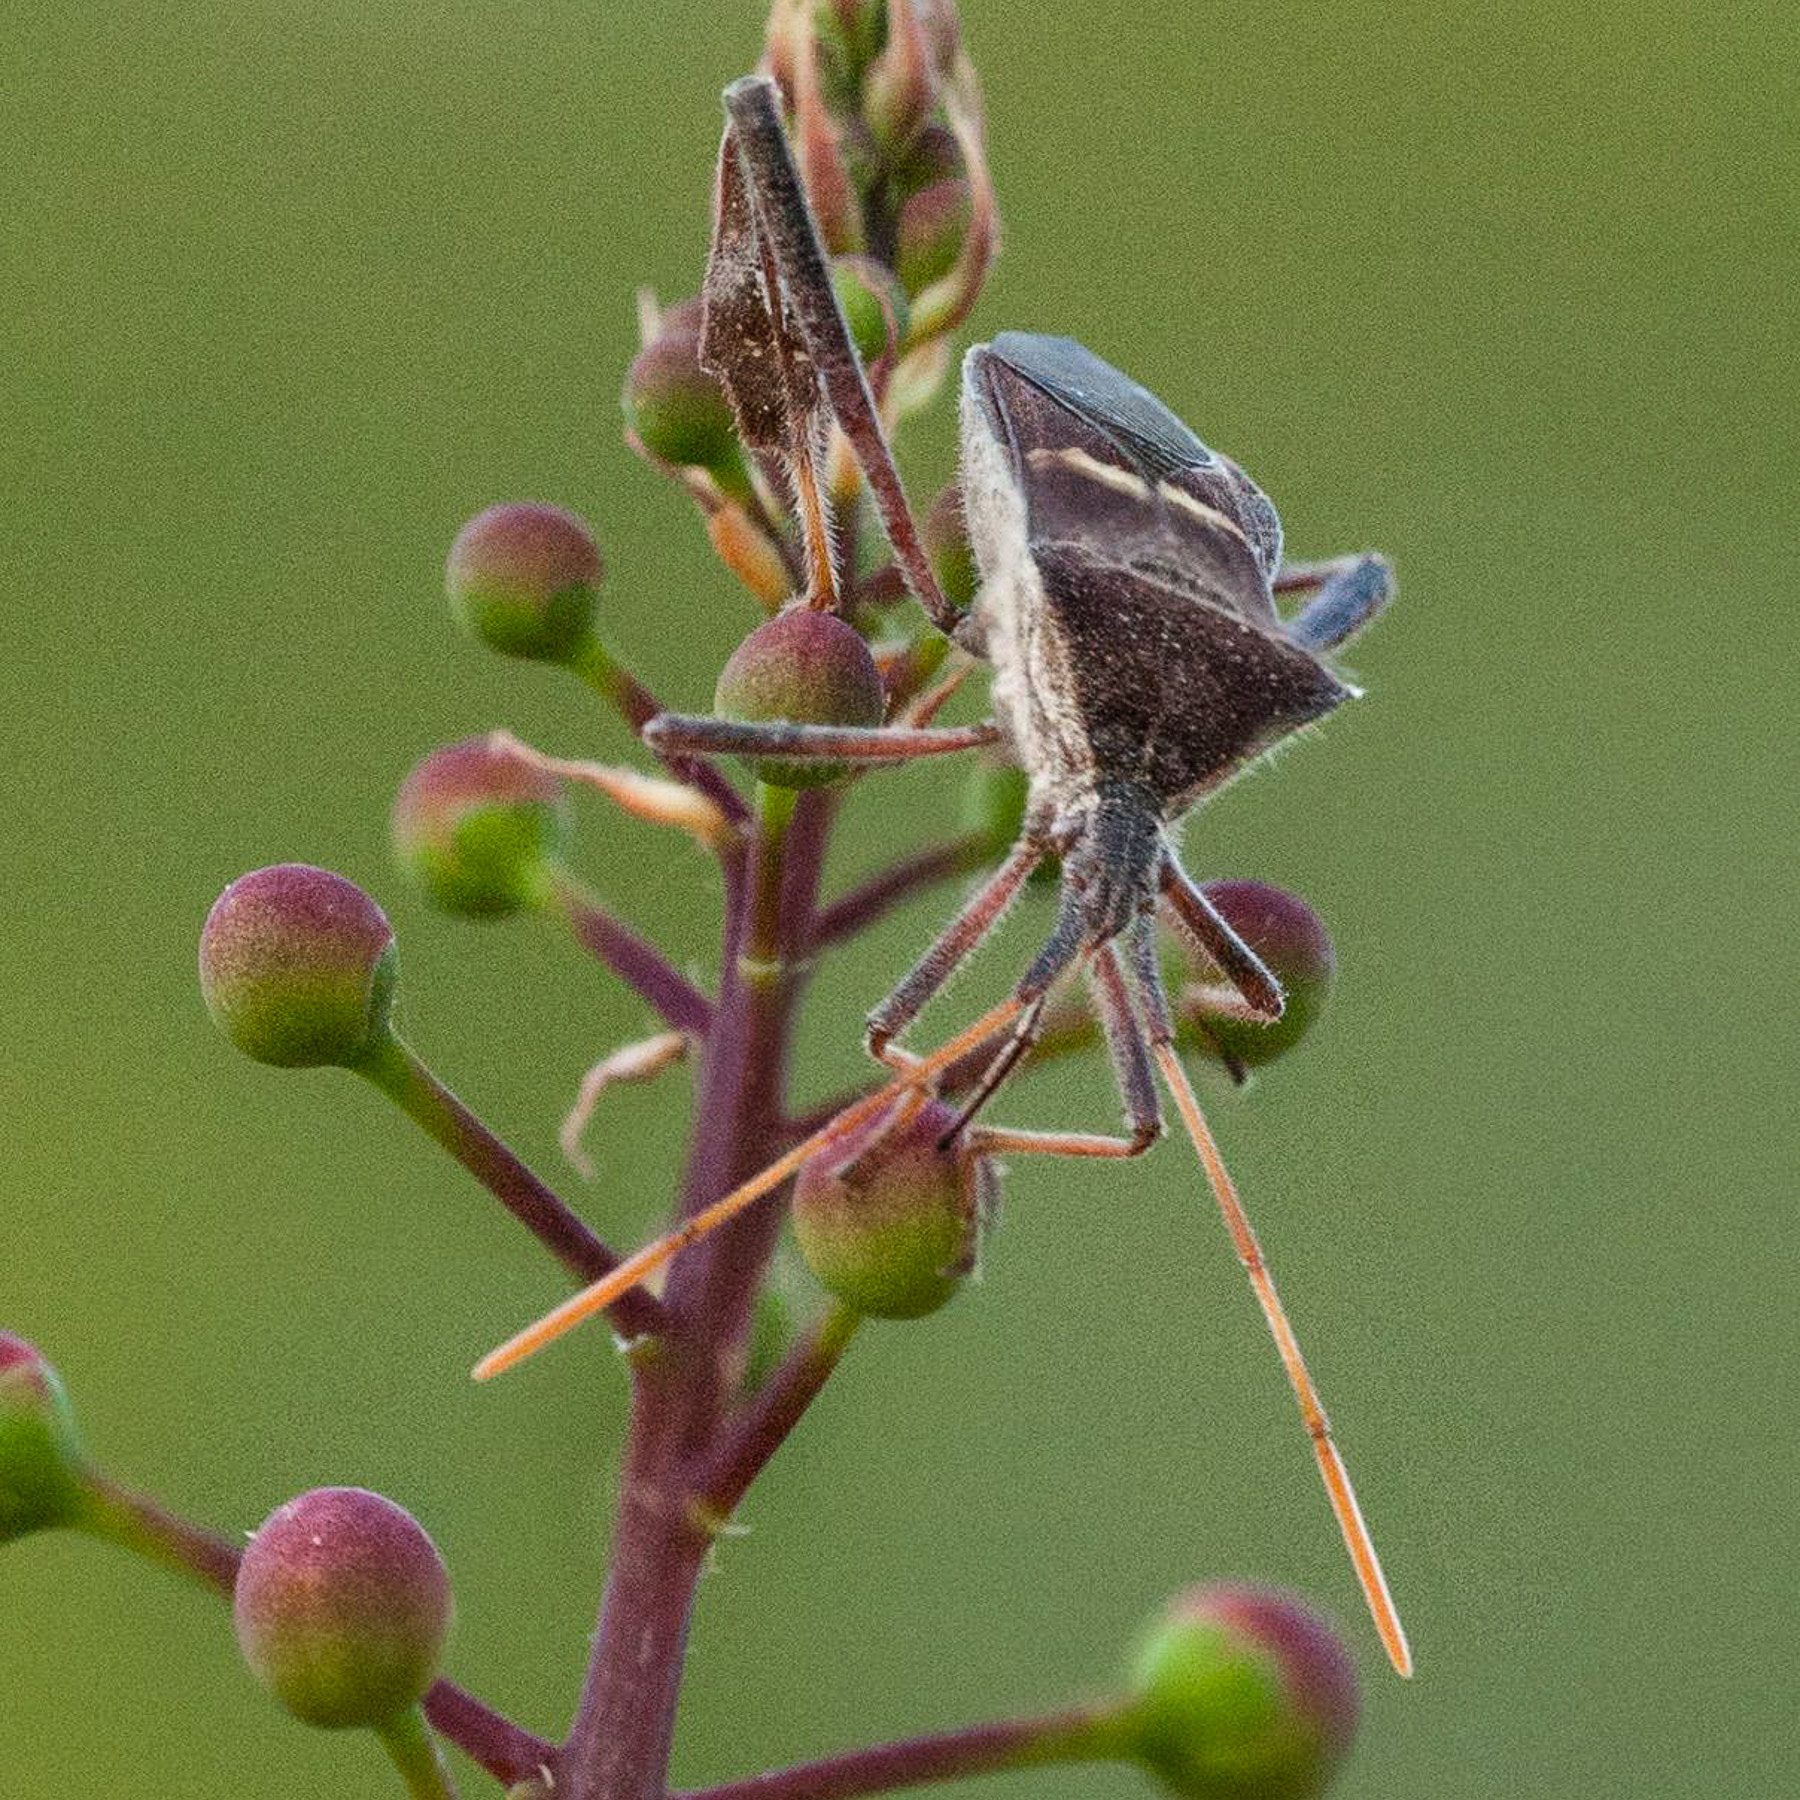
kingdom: Animalia
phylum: Arthropoda
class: Insecta
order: Hemiptera
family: Coreidae
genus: Leptoglossus
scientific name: Leptoglossus phyllopus
